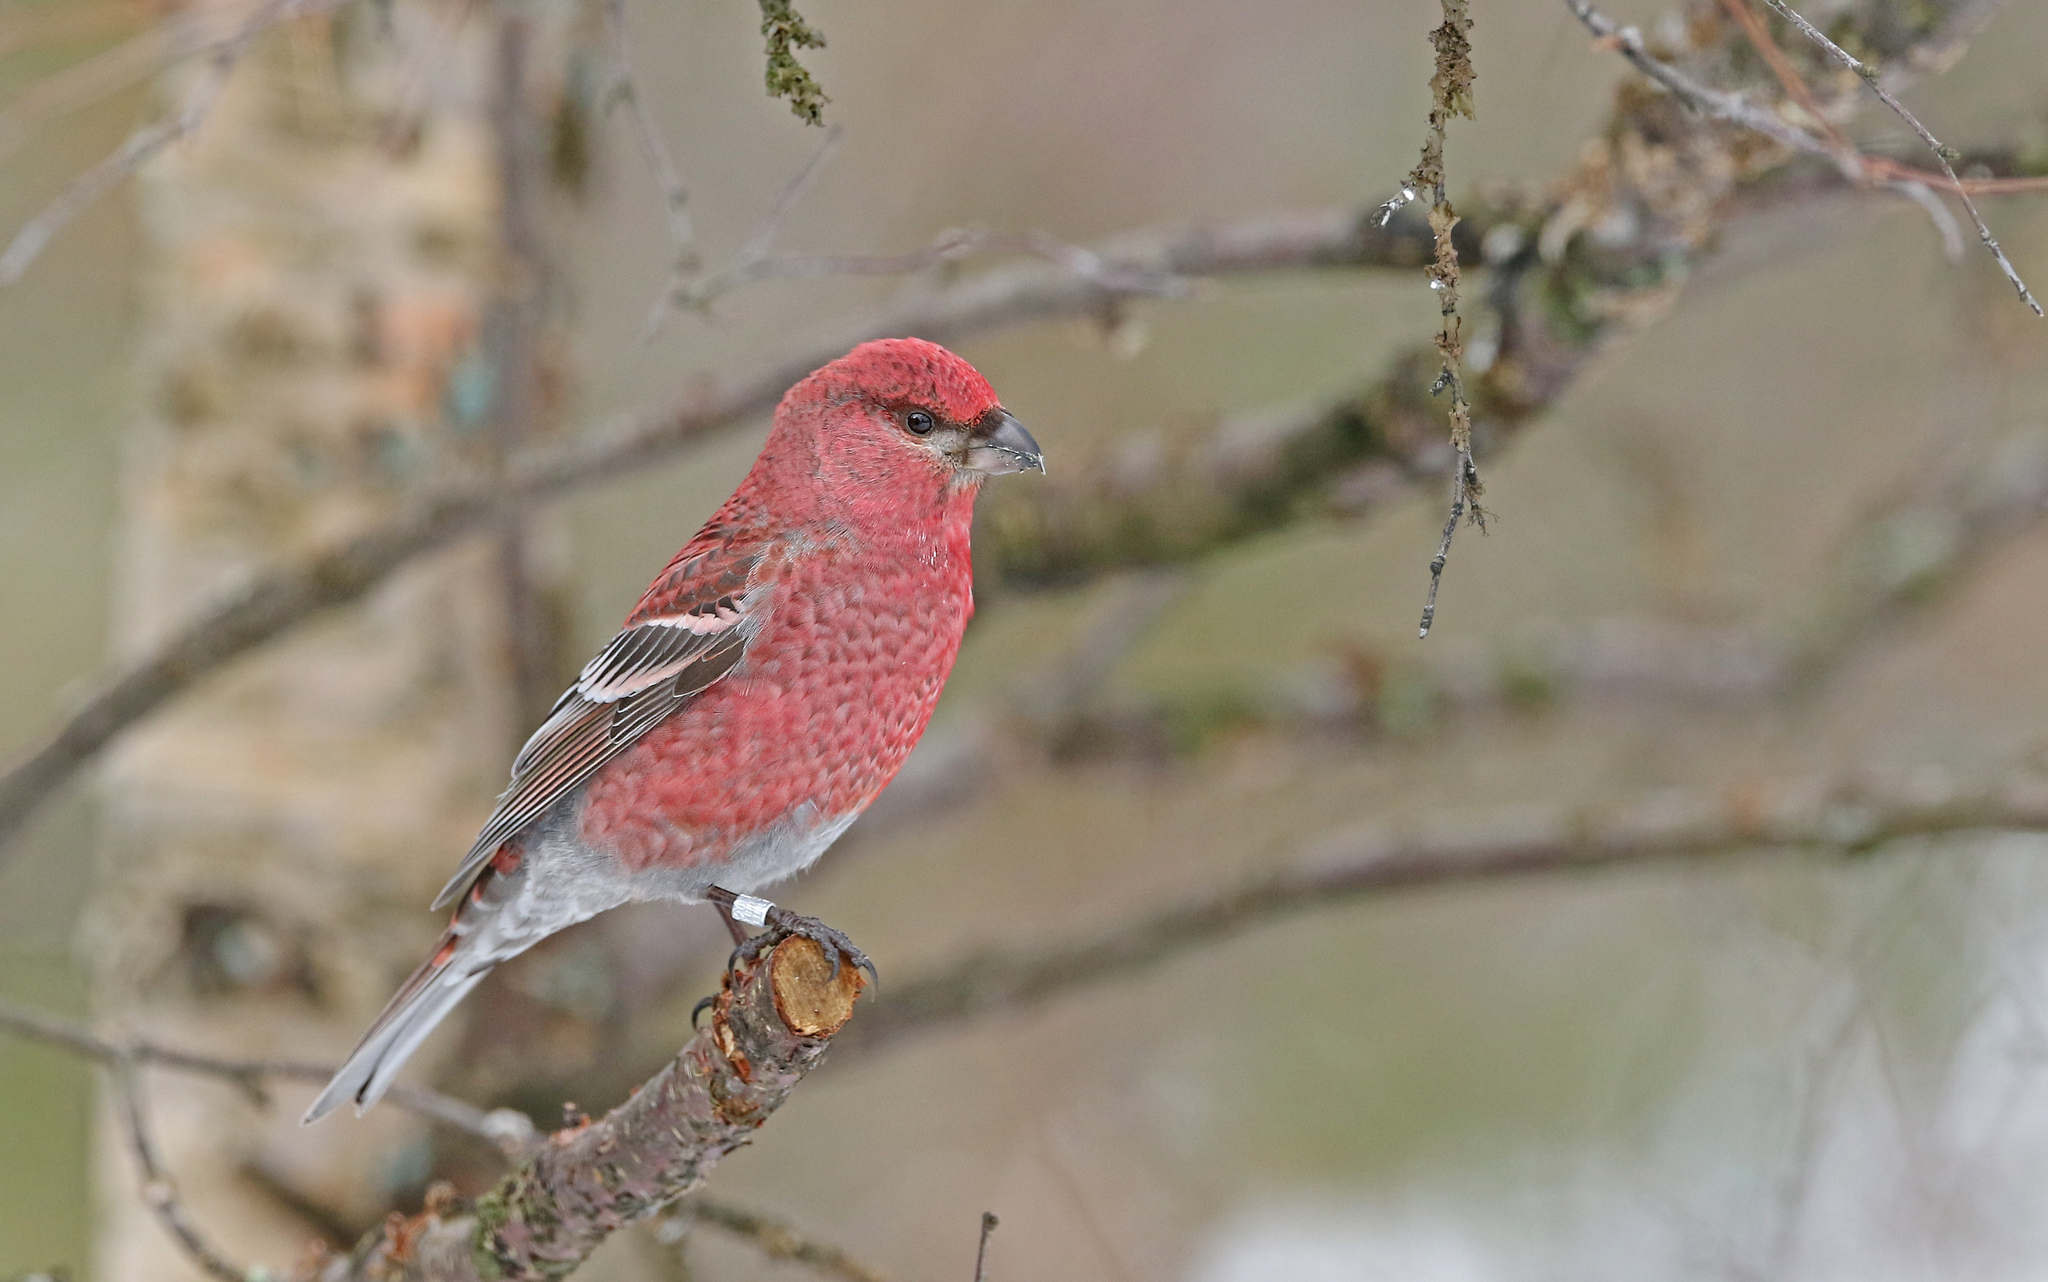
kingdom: Animalia
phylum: Chordata
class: Aves
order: Passeriformes
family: Fringillidae
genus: Pinicola
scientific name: Pinicola enucleator
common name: Pine grosbeak
